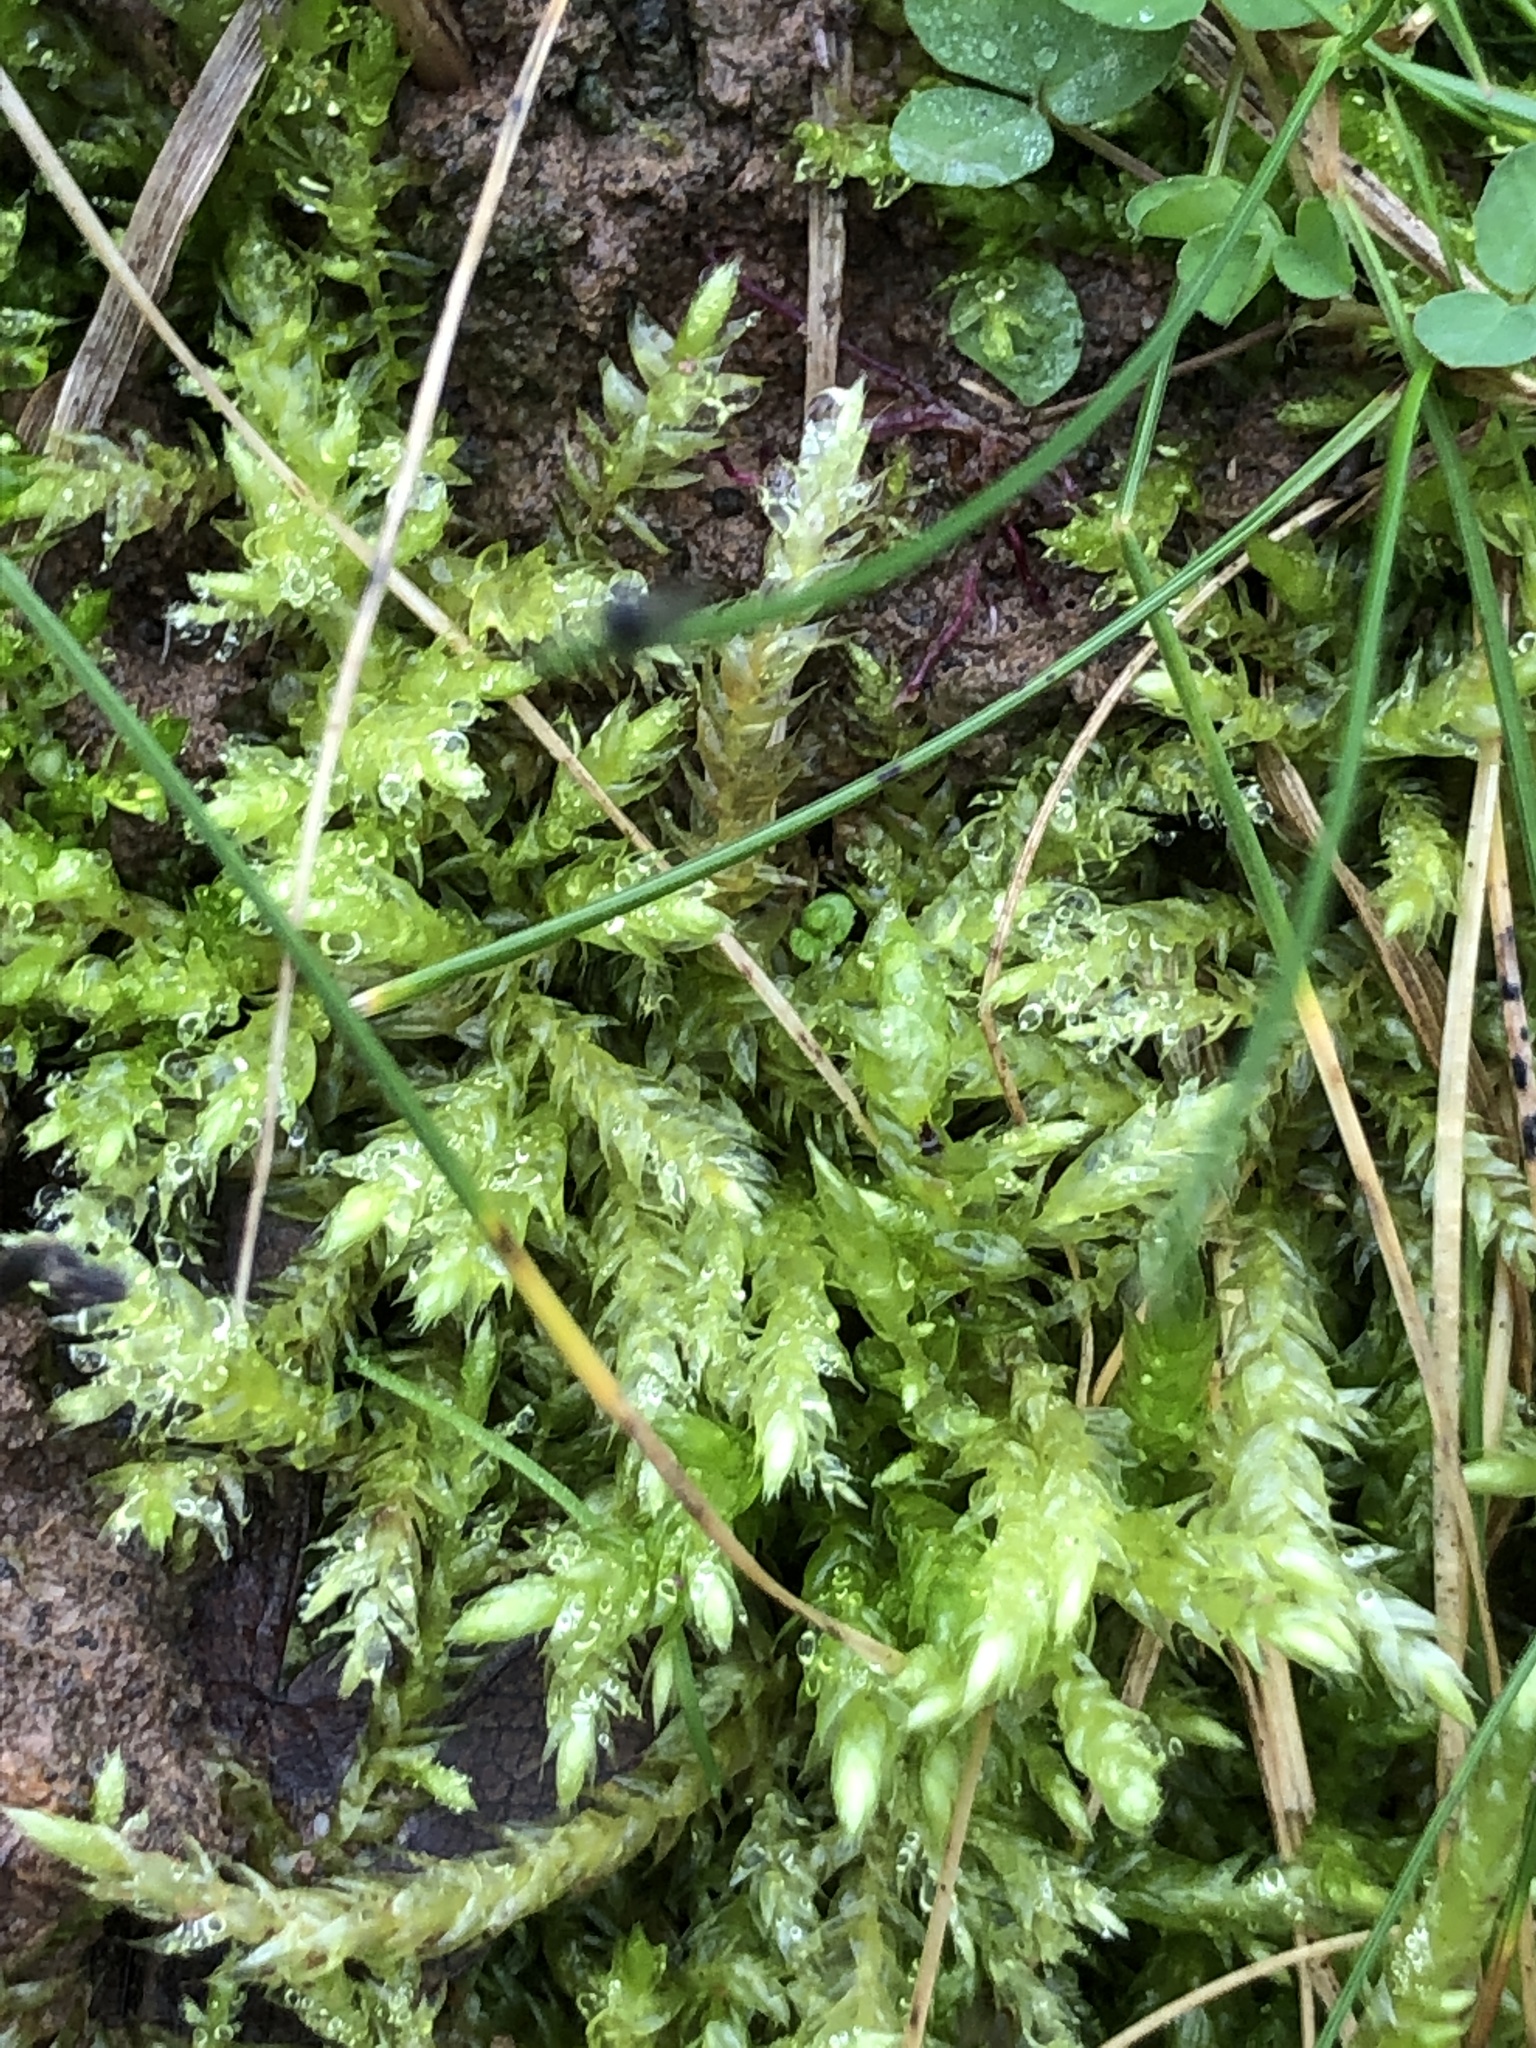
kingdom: Plantae
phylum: Bryophyta
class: Bryopsida
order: Hypnales
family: Brachytheciaceae
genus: Brachythecium
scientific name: Brachythecium rutabulum
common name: Rough-stalked feather-moss
